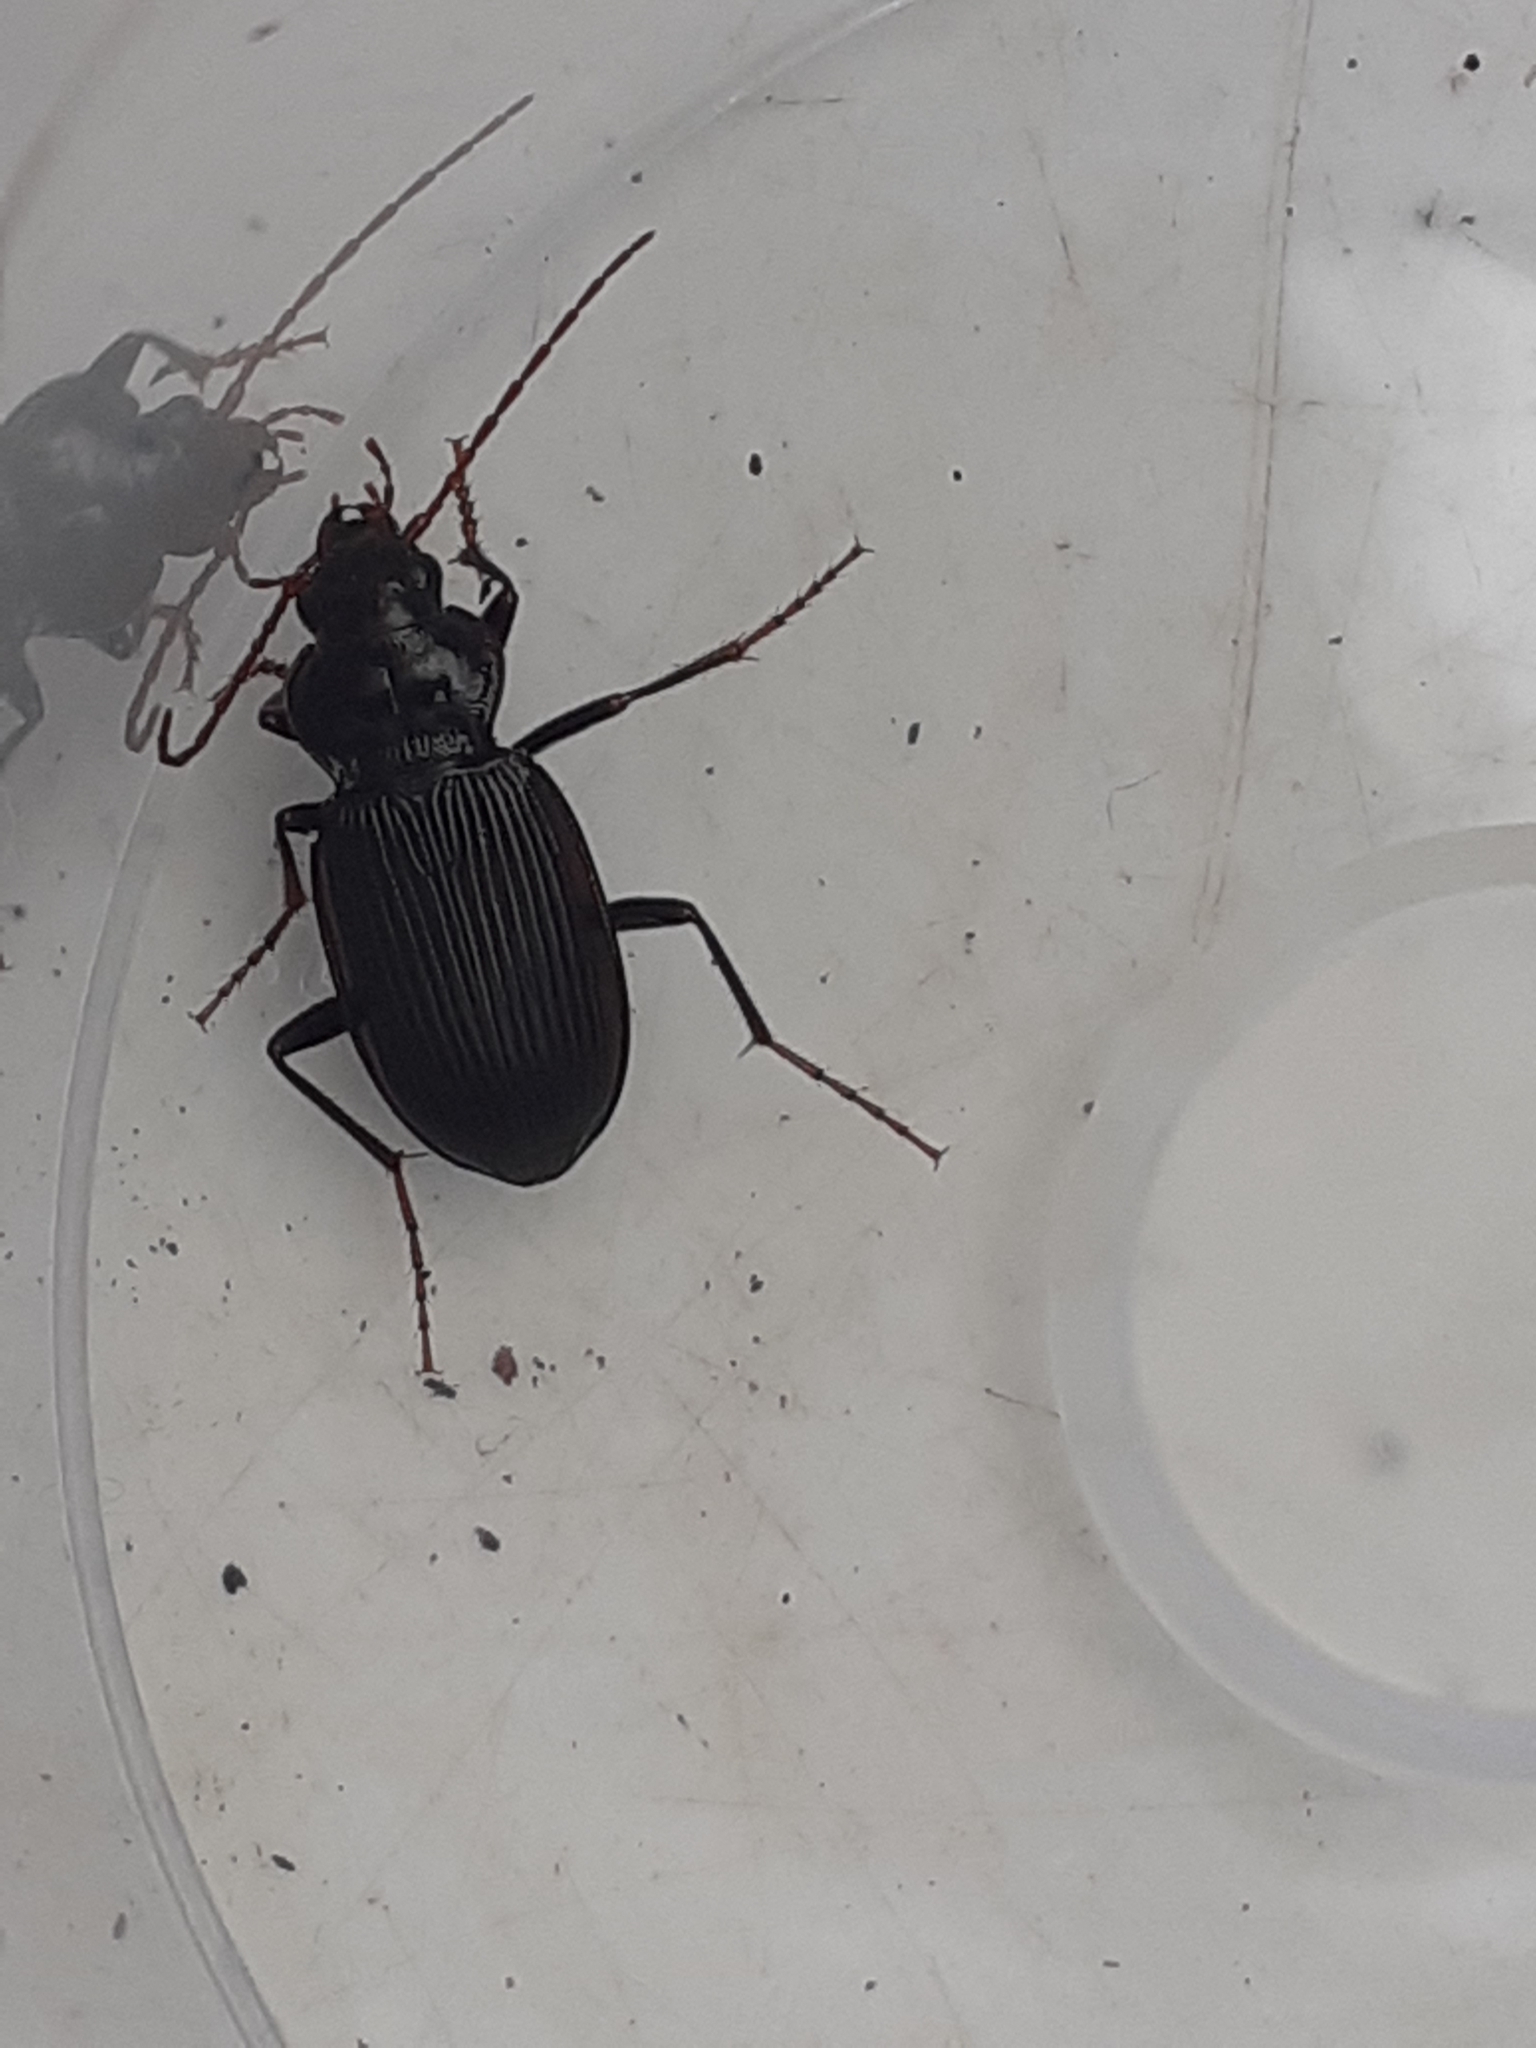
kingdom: Animalia
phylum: Arthropoda
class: Insecta
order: Coleoptera
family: Carabidae
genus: Nebria
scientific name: Nebria brevicollis
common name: Short-necked gazelle beetle
